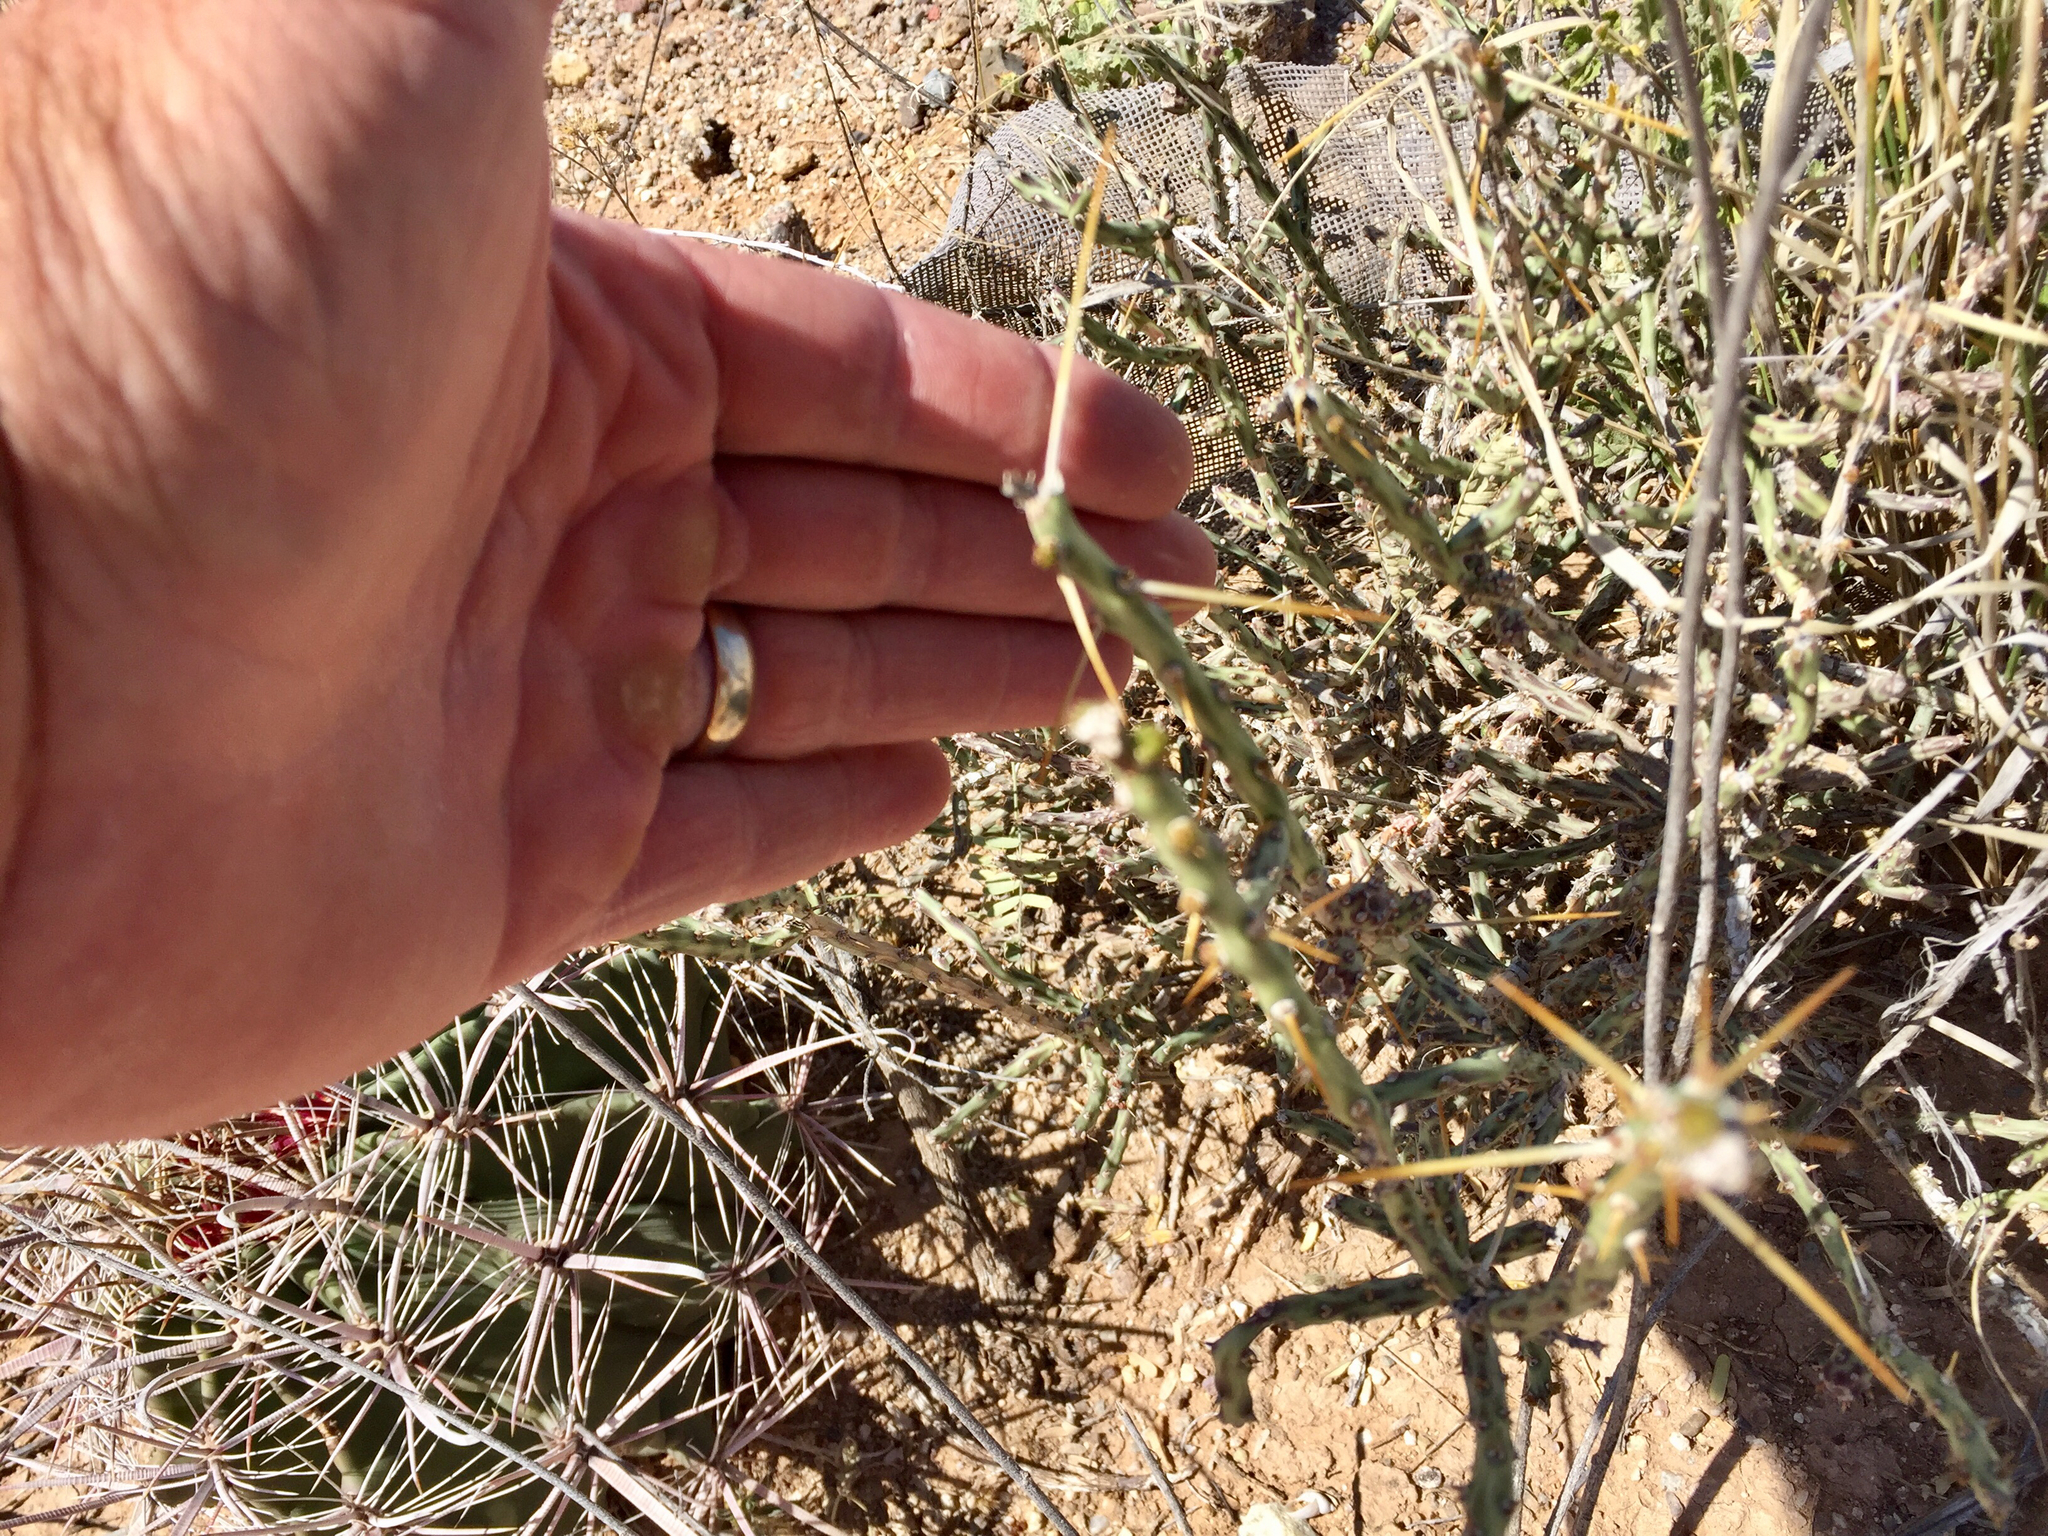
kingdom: Plantae
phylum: Tracheophyta
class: Magnoliopsida
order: Caryophyllales
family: Cactaceae
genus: Cylindropuntia
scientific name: Cylindropuntia leptocaulis
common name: Christmas cactus
